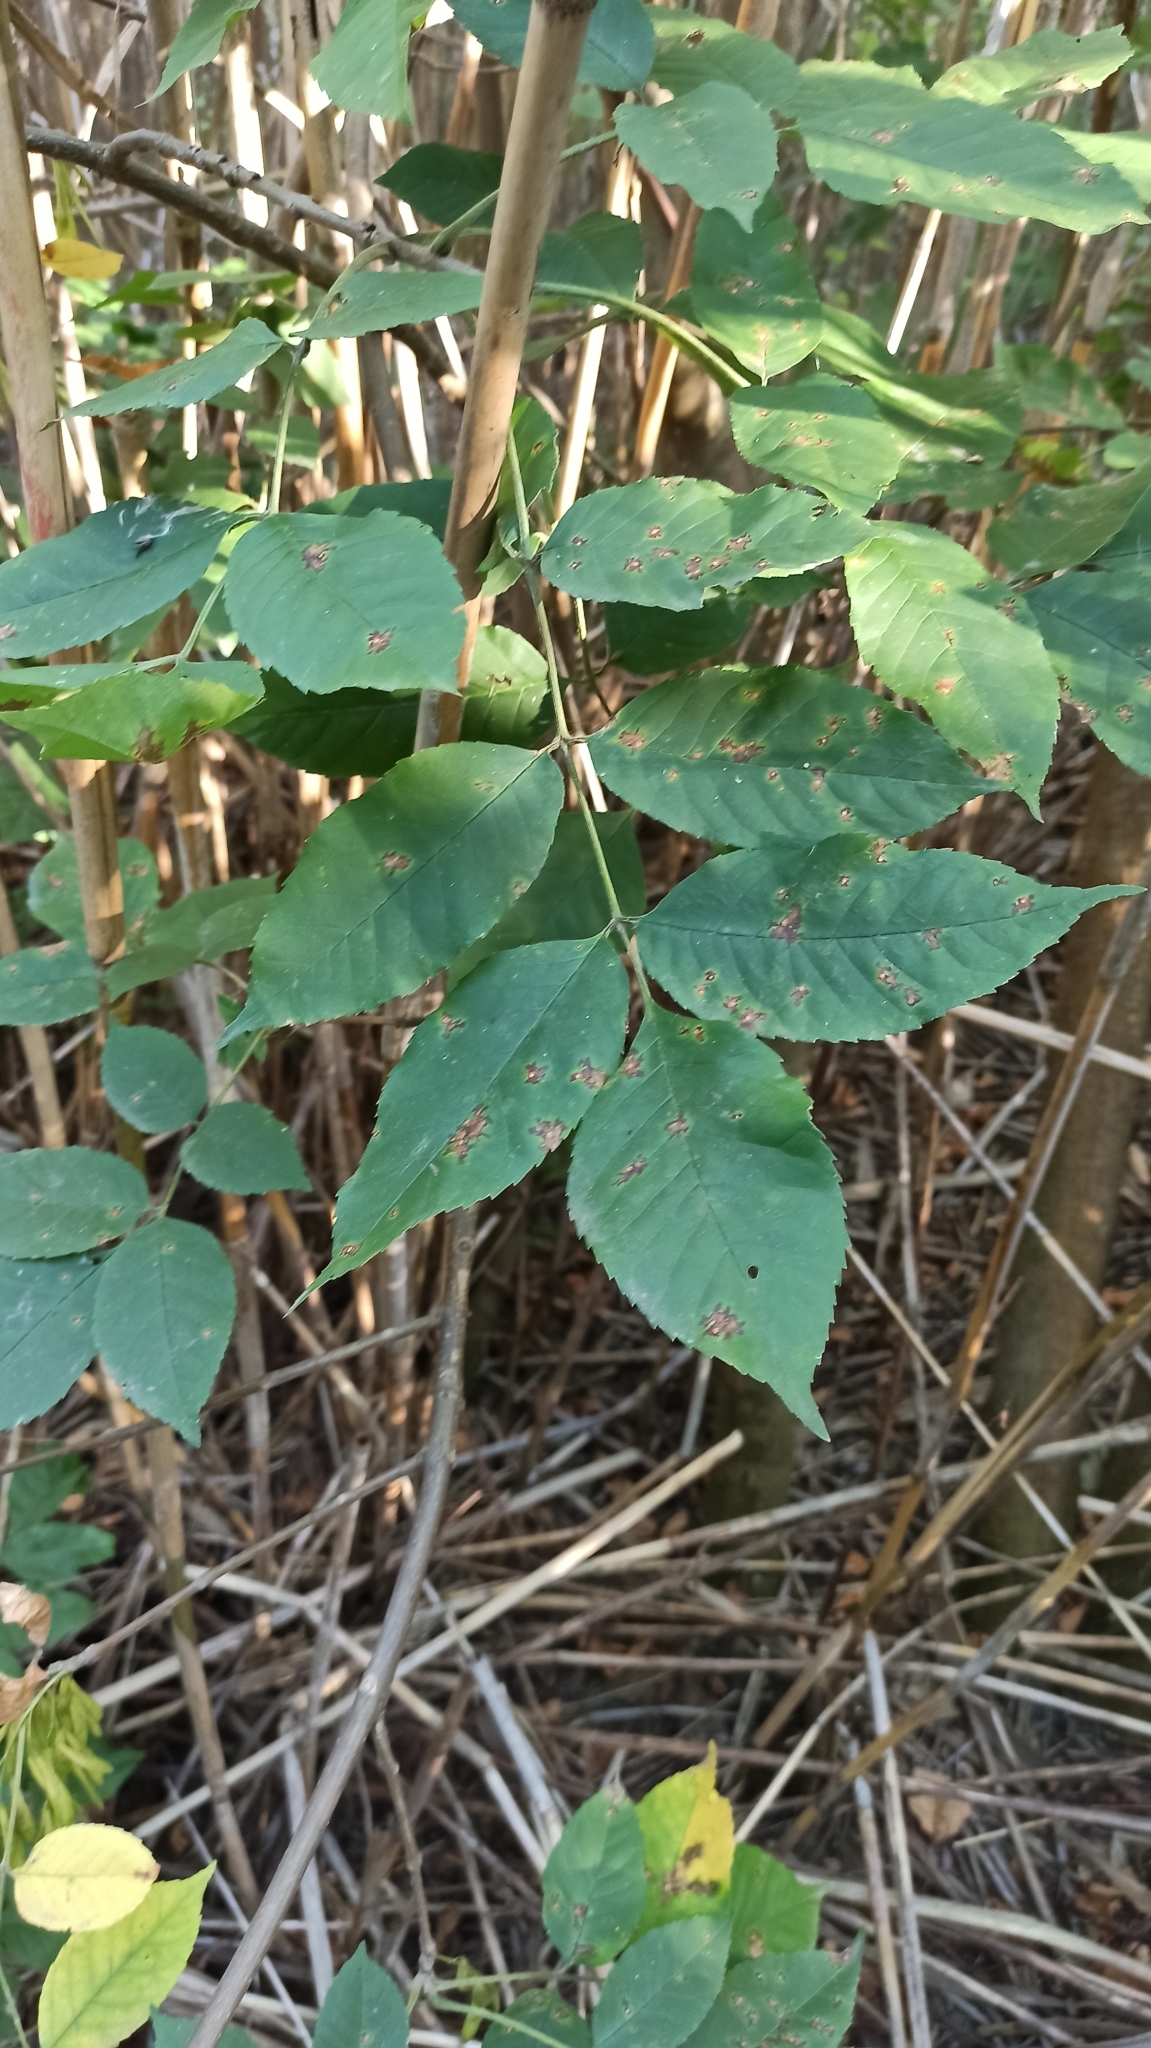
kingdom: Plantae
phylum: Tracheophyta
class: Magnoliopsida
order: Lamiales
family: Oleaceae
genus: Fraxinus
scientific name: Fraxinus pennsylvanica
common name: Green ash
